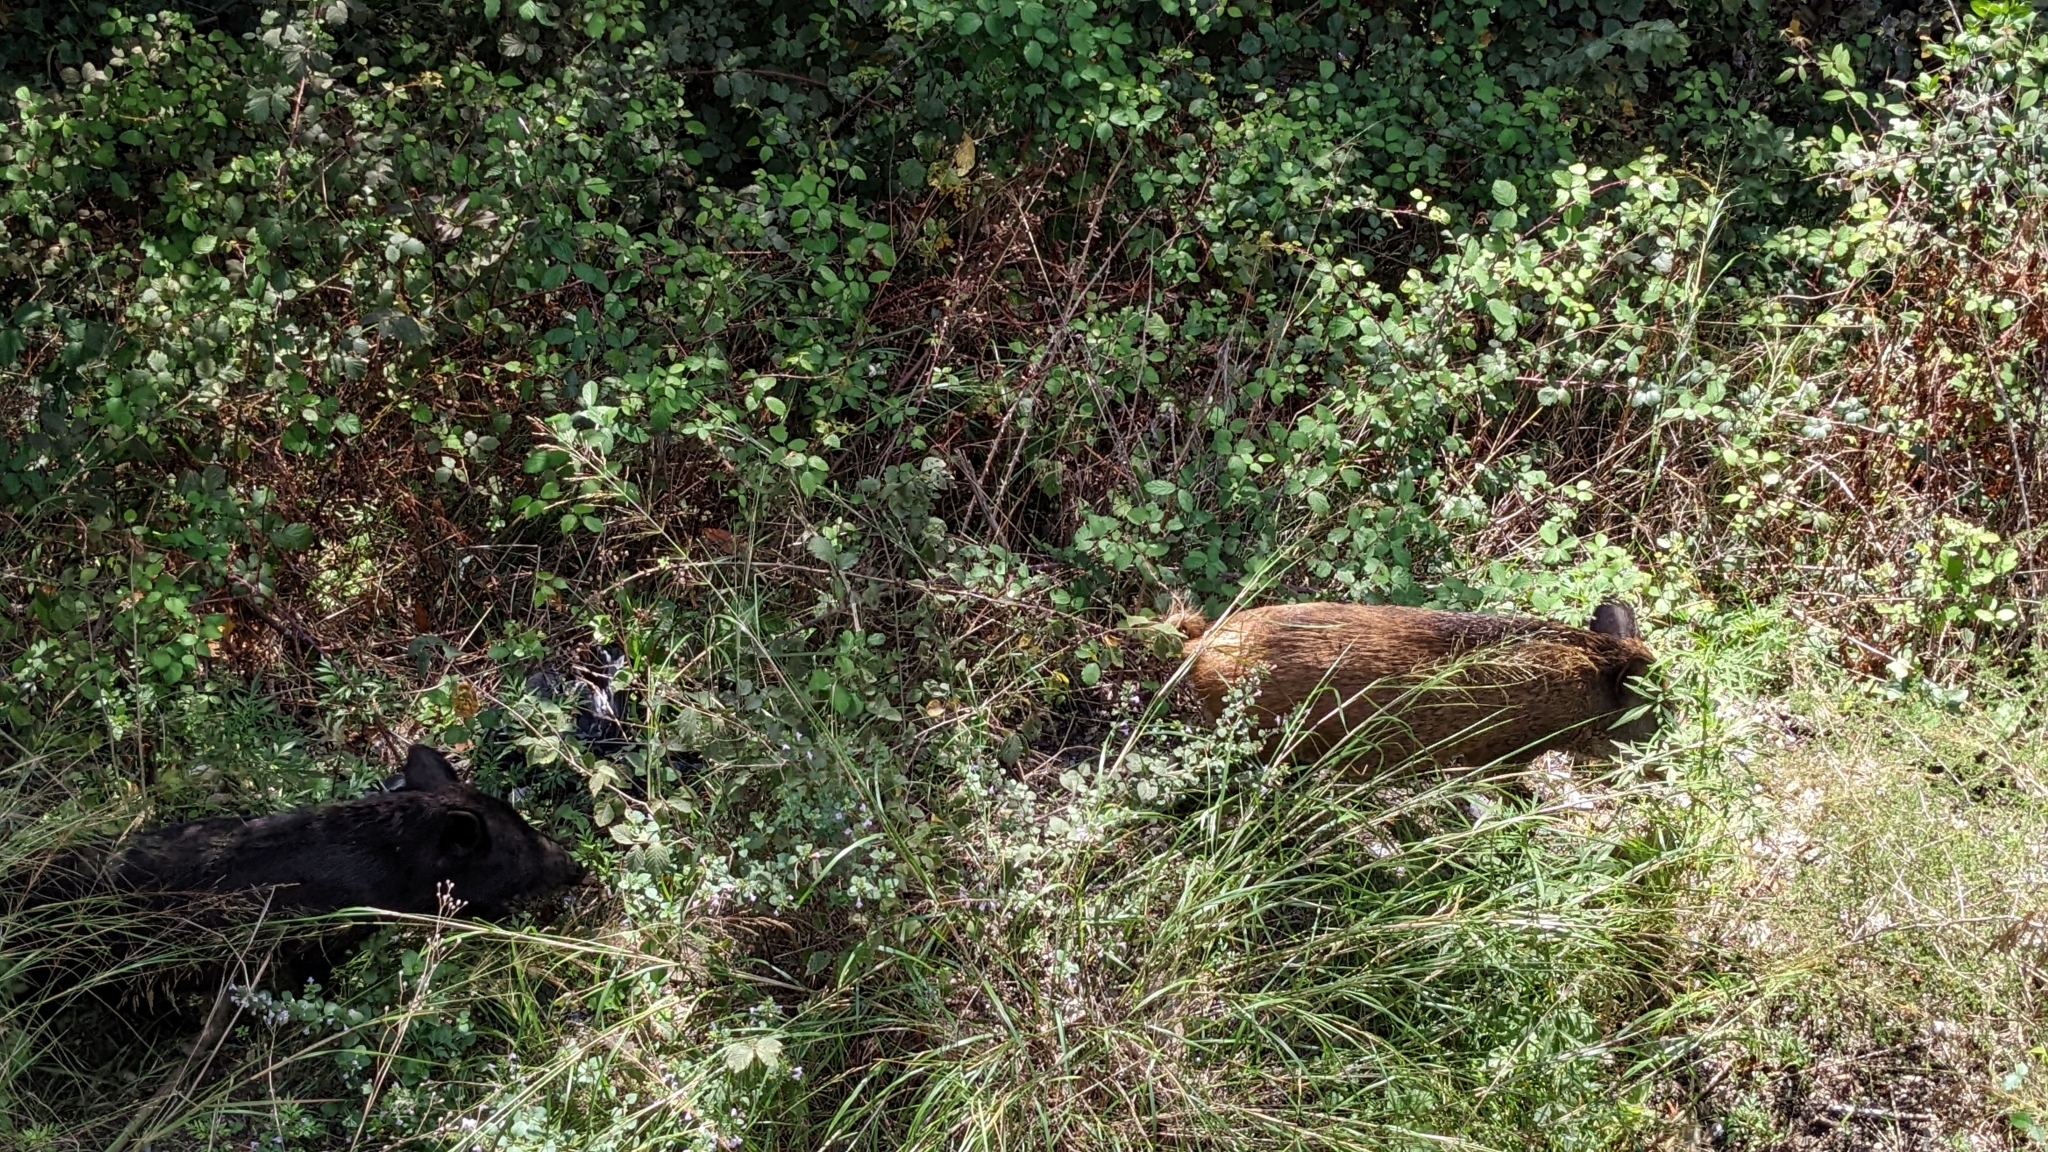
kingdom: Animalia
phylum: Chordata
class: Mammalia
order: Artiodactyla
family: Suidae
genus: Sus
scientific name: Sus scrofa
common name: Wild boar
